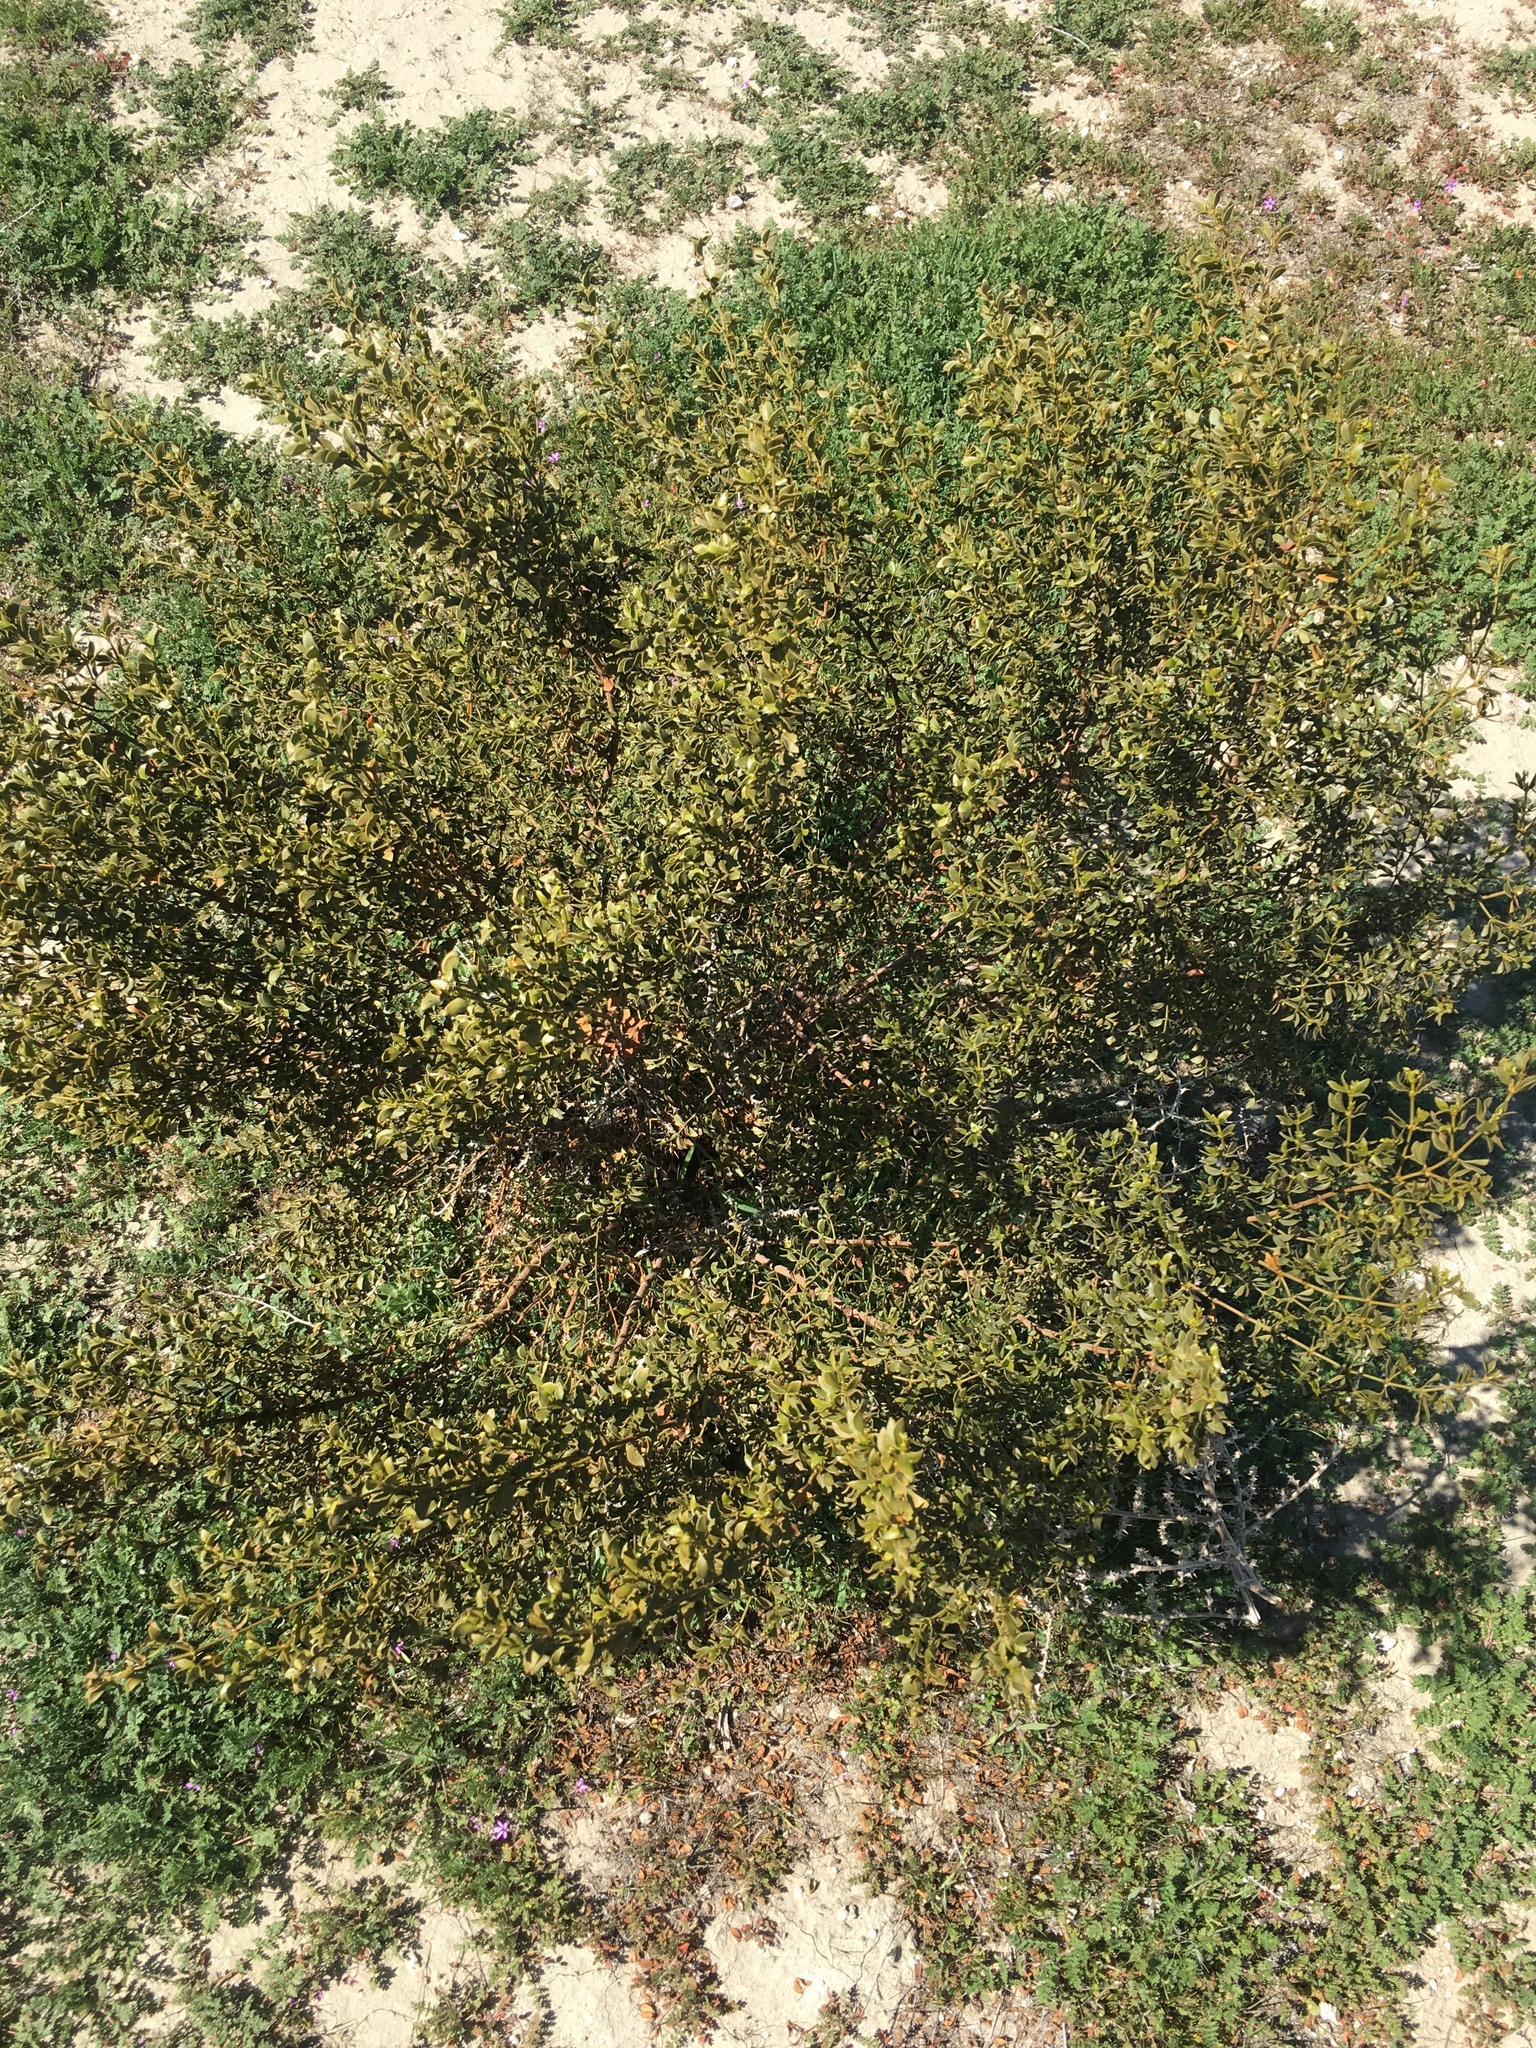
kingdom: Plantae
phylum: Tracheophyta
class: Magnoliopsida
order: Zygophyllales
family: Zygophyllaceae
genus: Larrea
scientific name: Larrea tridentata
